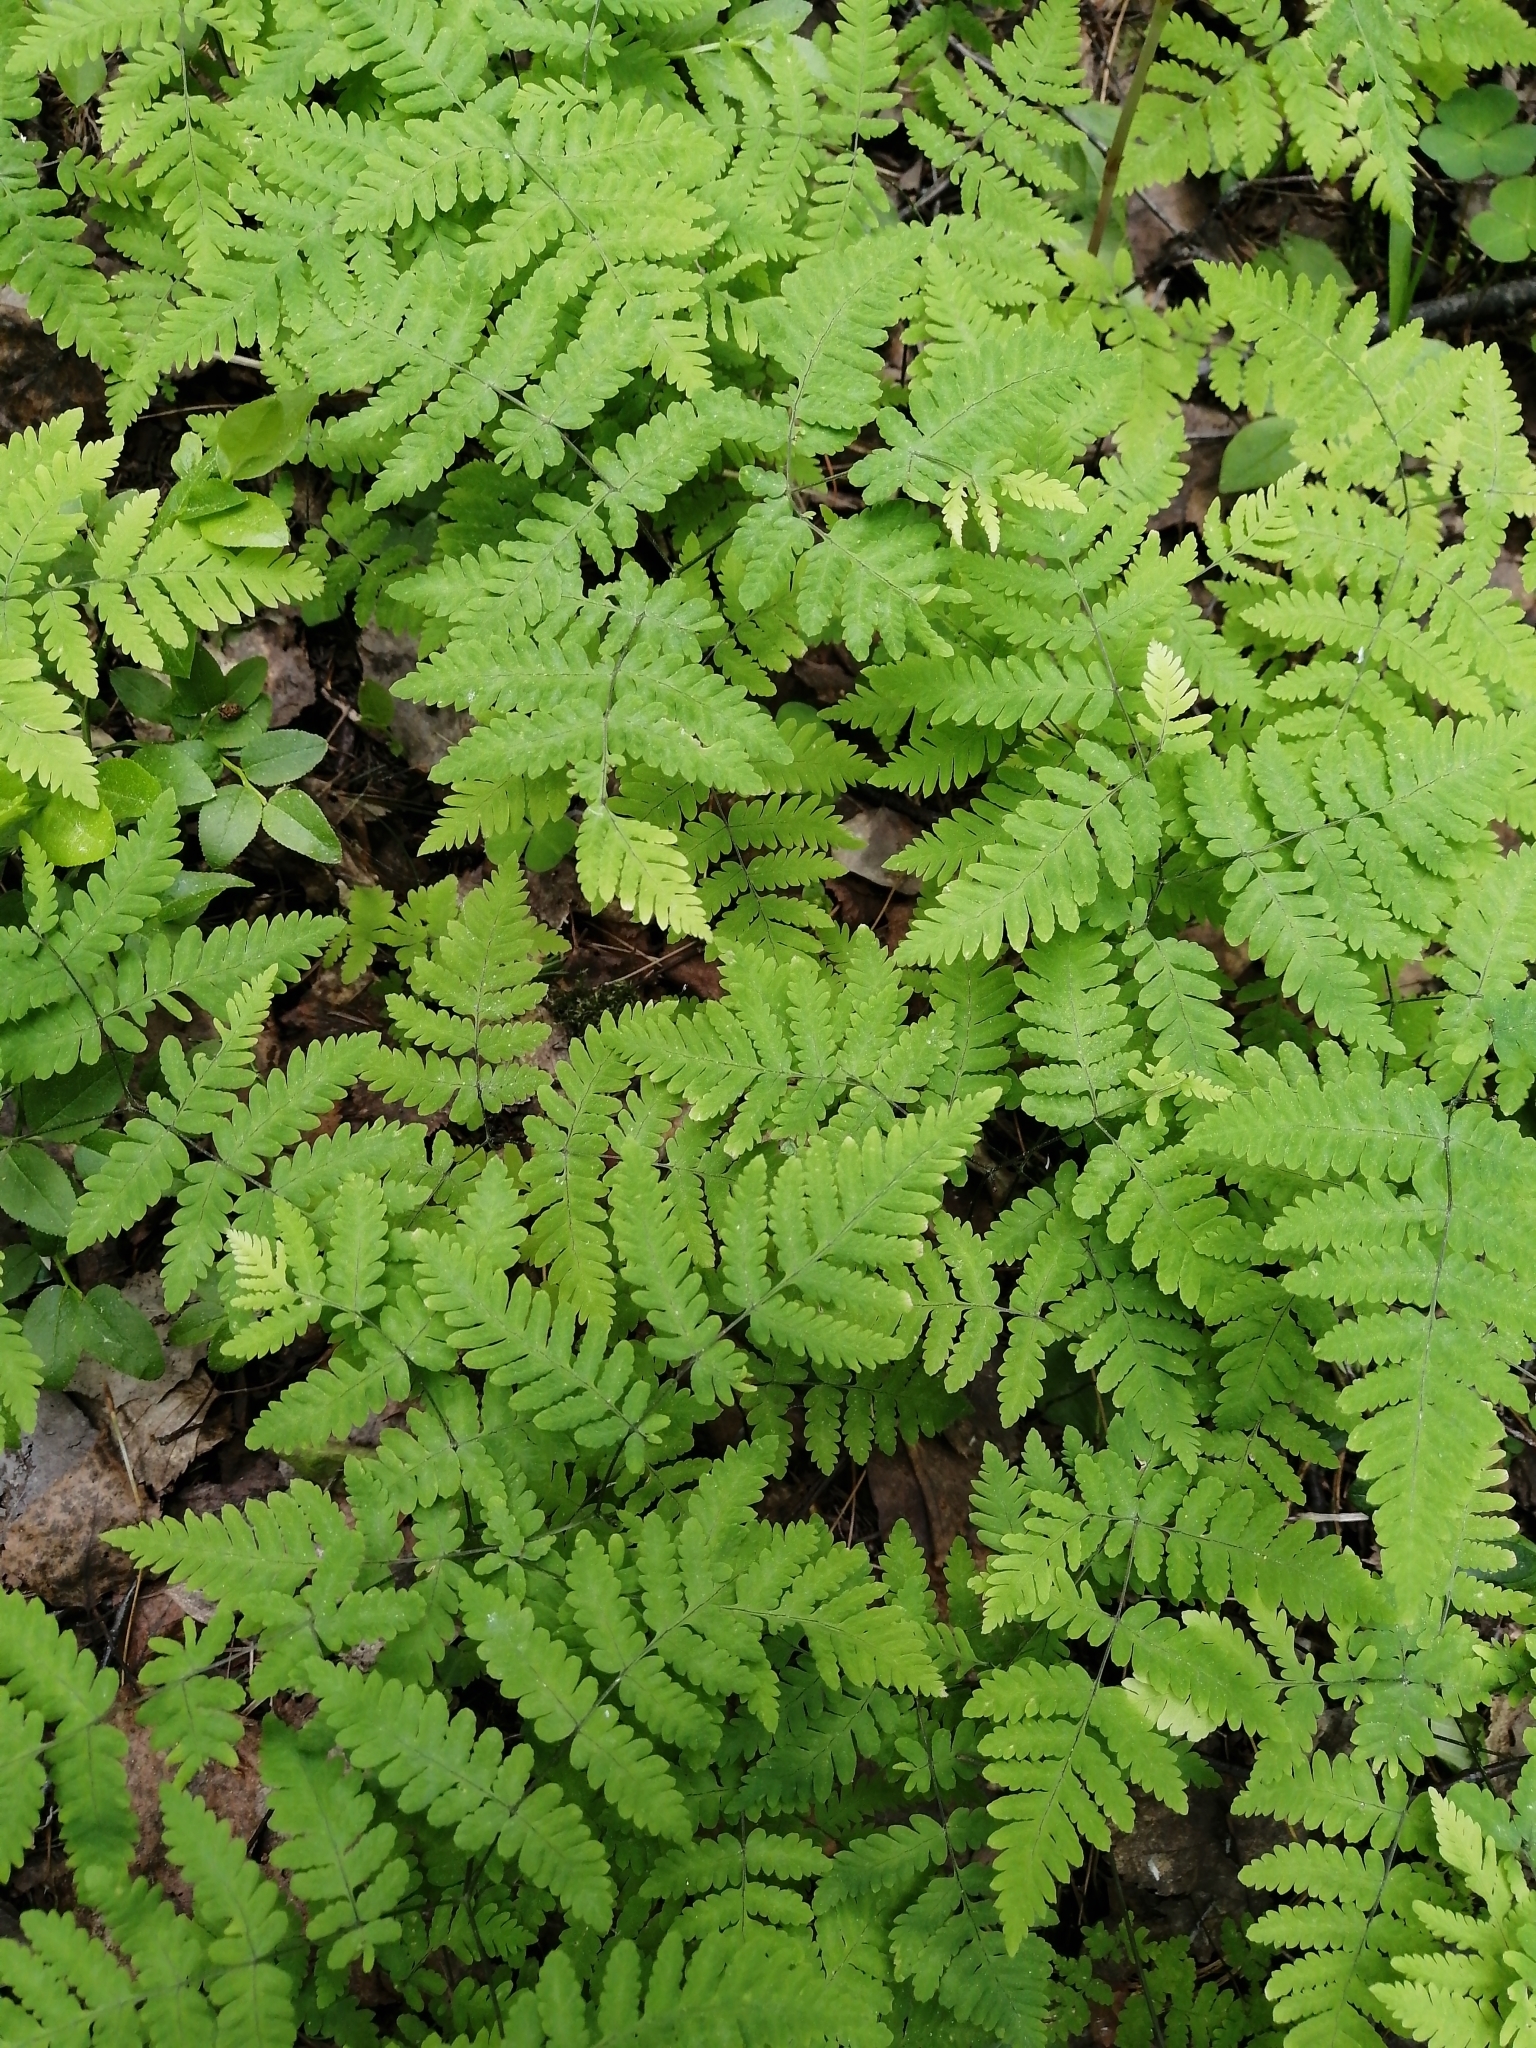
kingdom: Plantae
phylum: Tracheophyta
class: Polypodiopsida
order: Polypodiales
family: Cystopteridaceae
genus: Gymnocarpium
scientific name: Gymnocarpium dryopteris
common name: Oak fern
